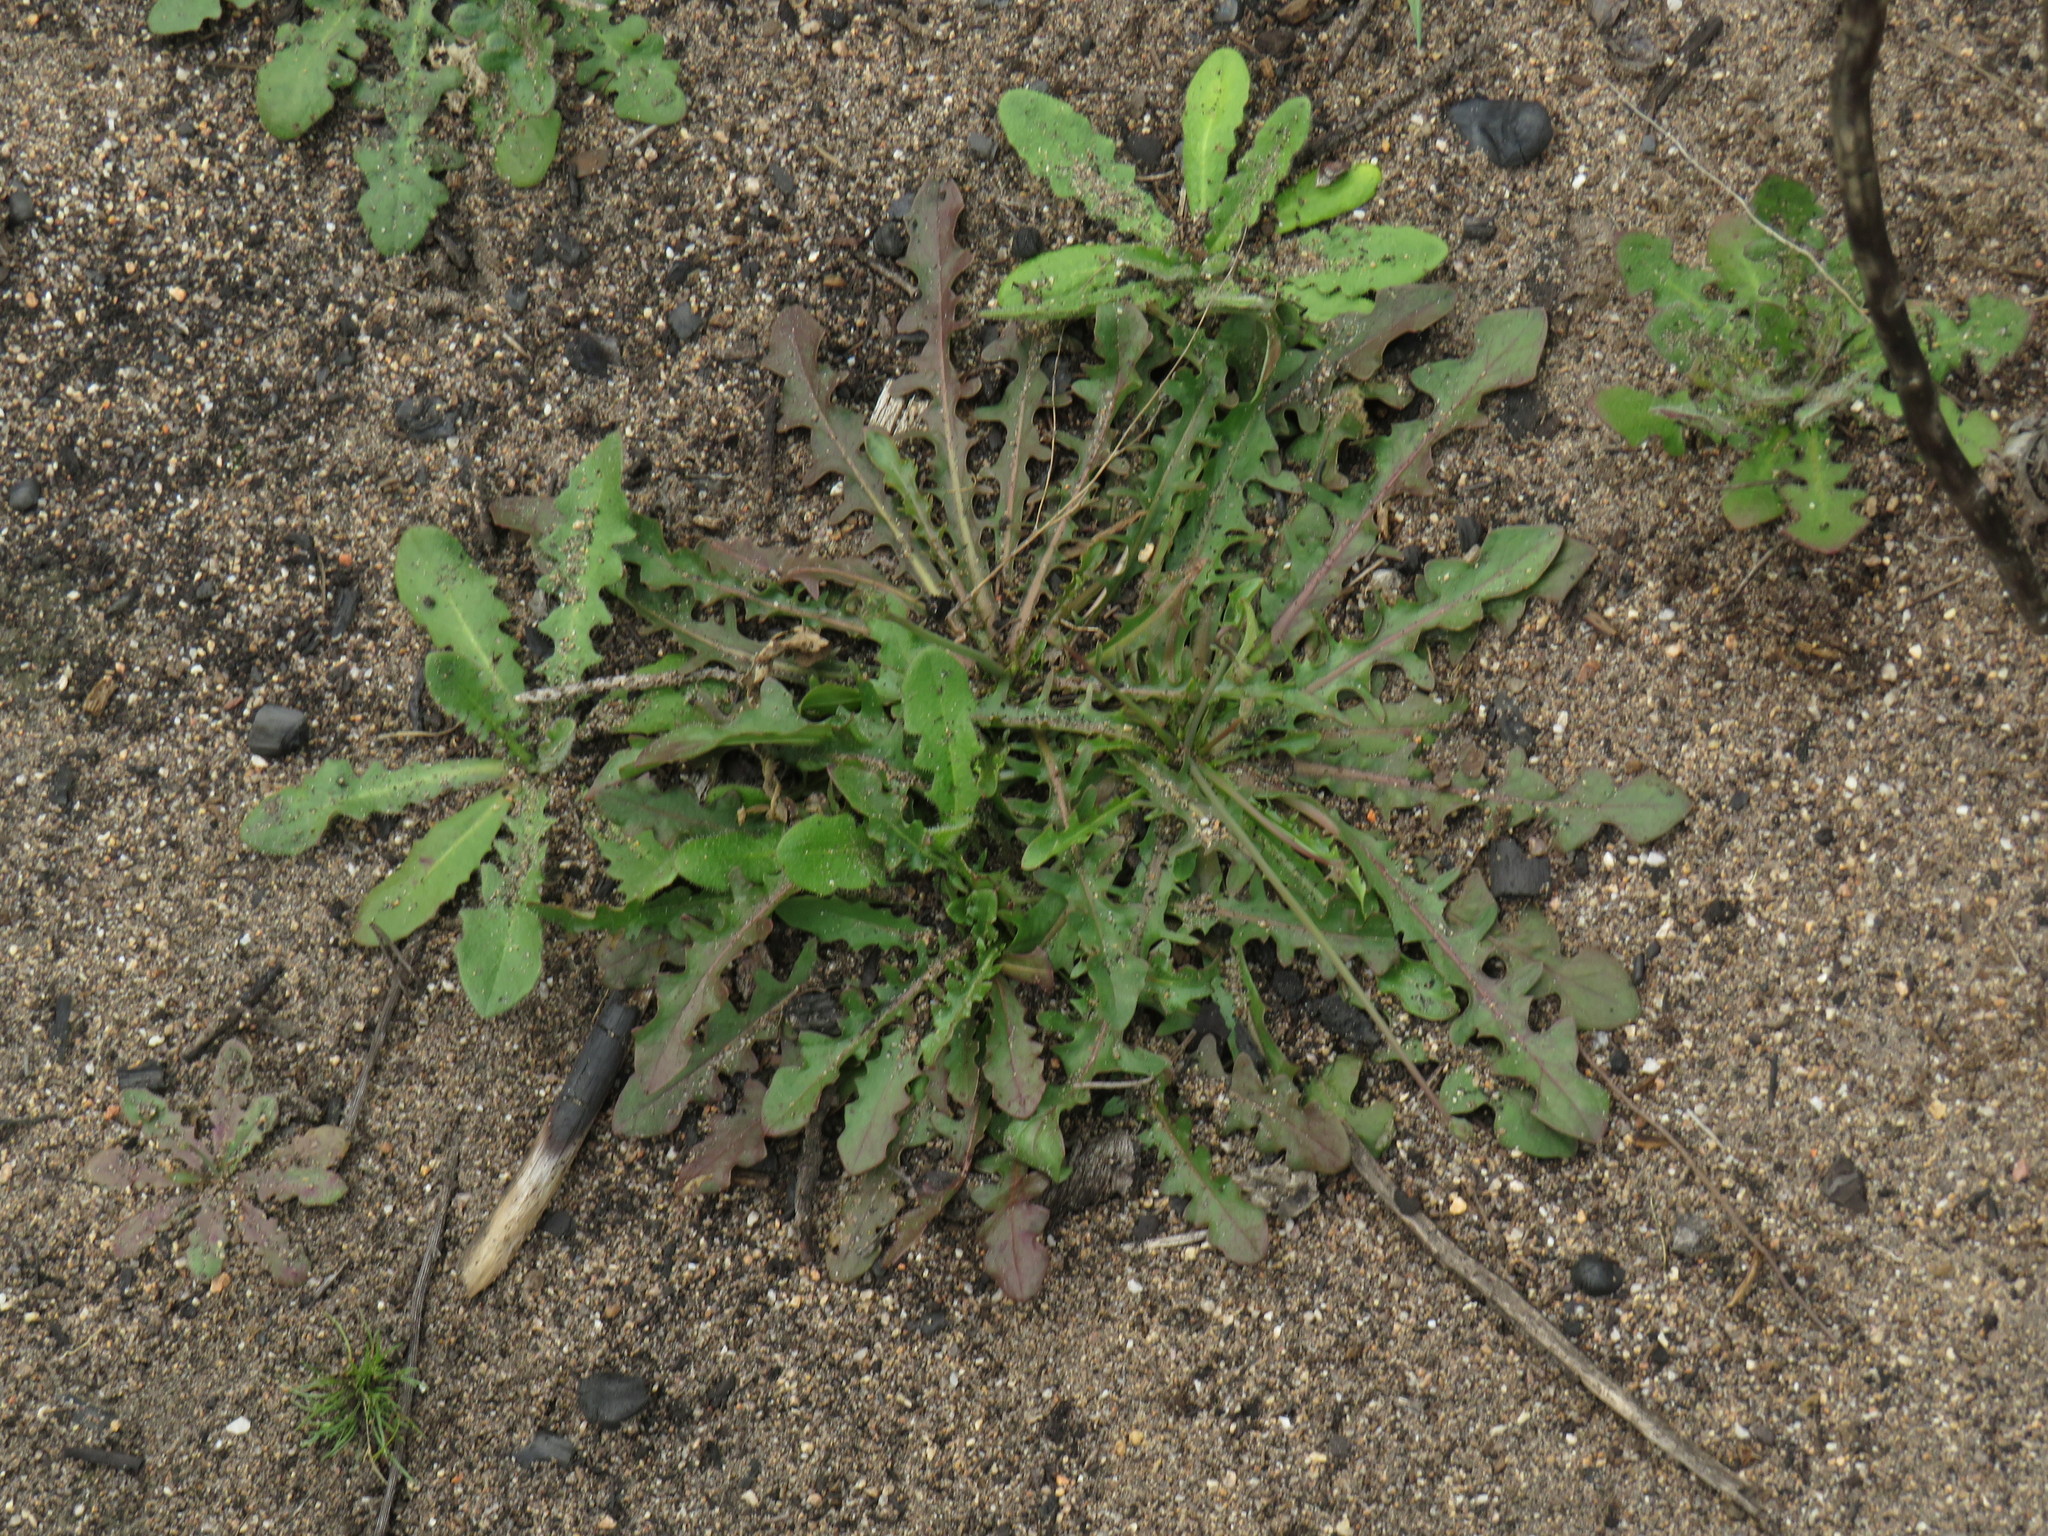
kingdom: Plantae
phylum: Tracheophyta
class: Magnoliopsida
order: Asterales
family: Asteraceae
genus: Hypochaeris
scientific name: Hypochaeris glabra
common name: Smooth catsear
